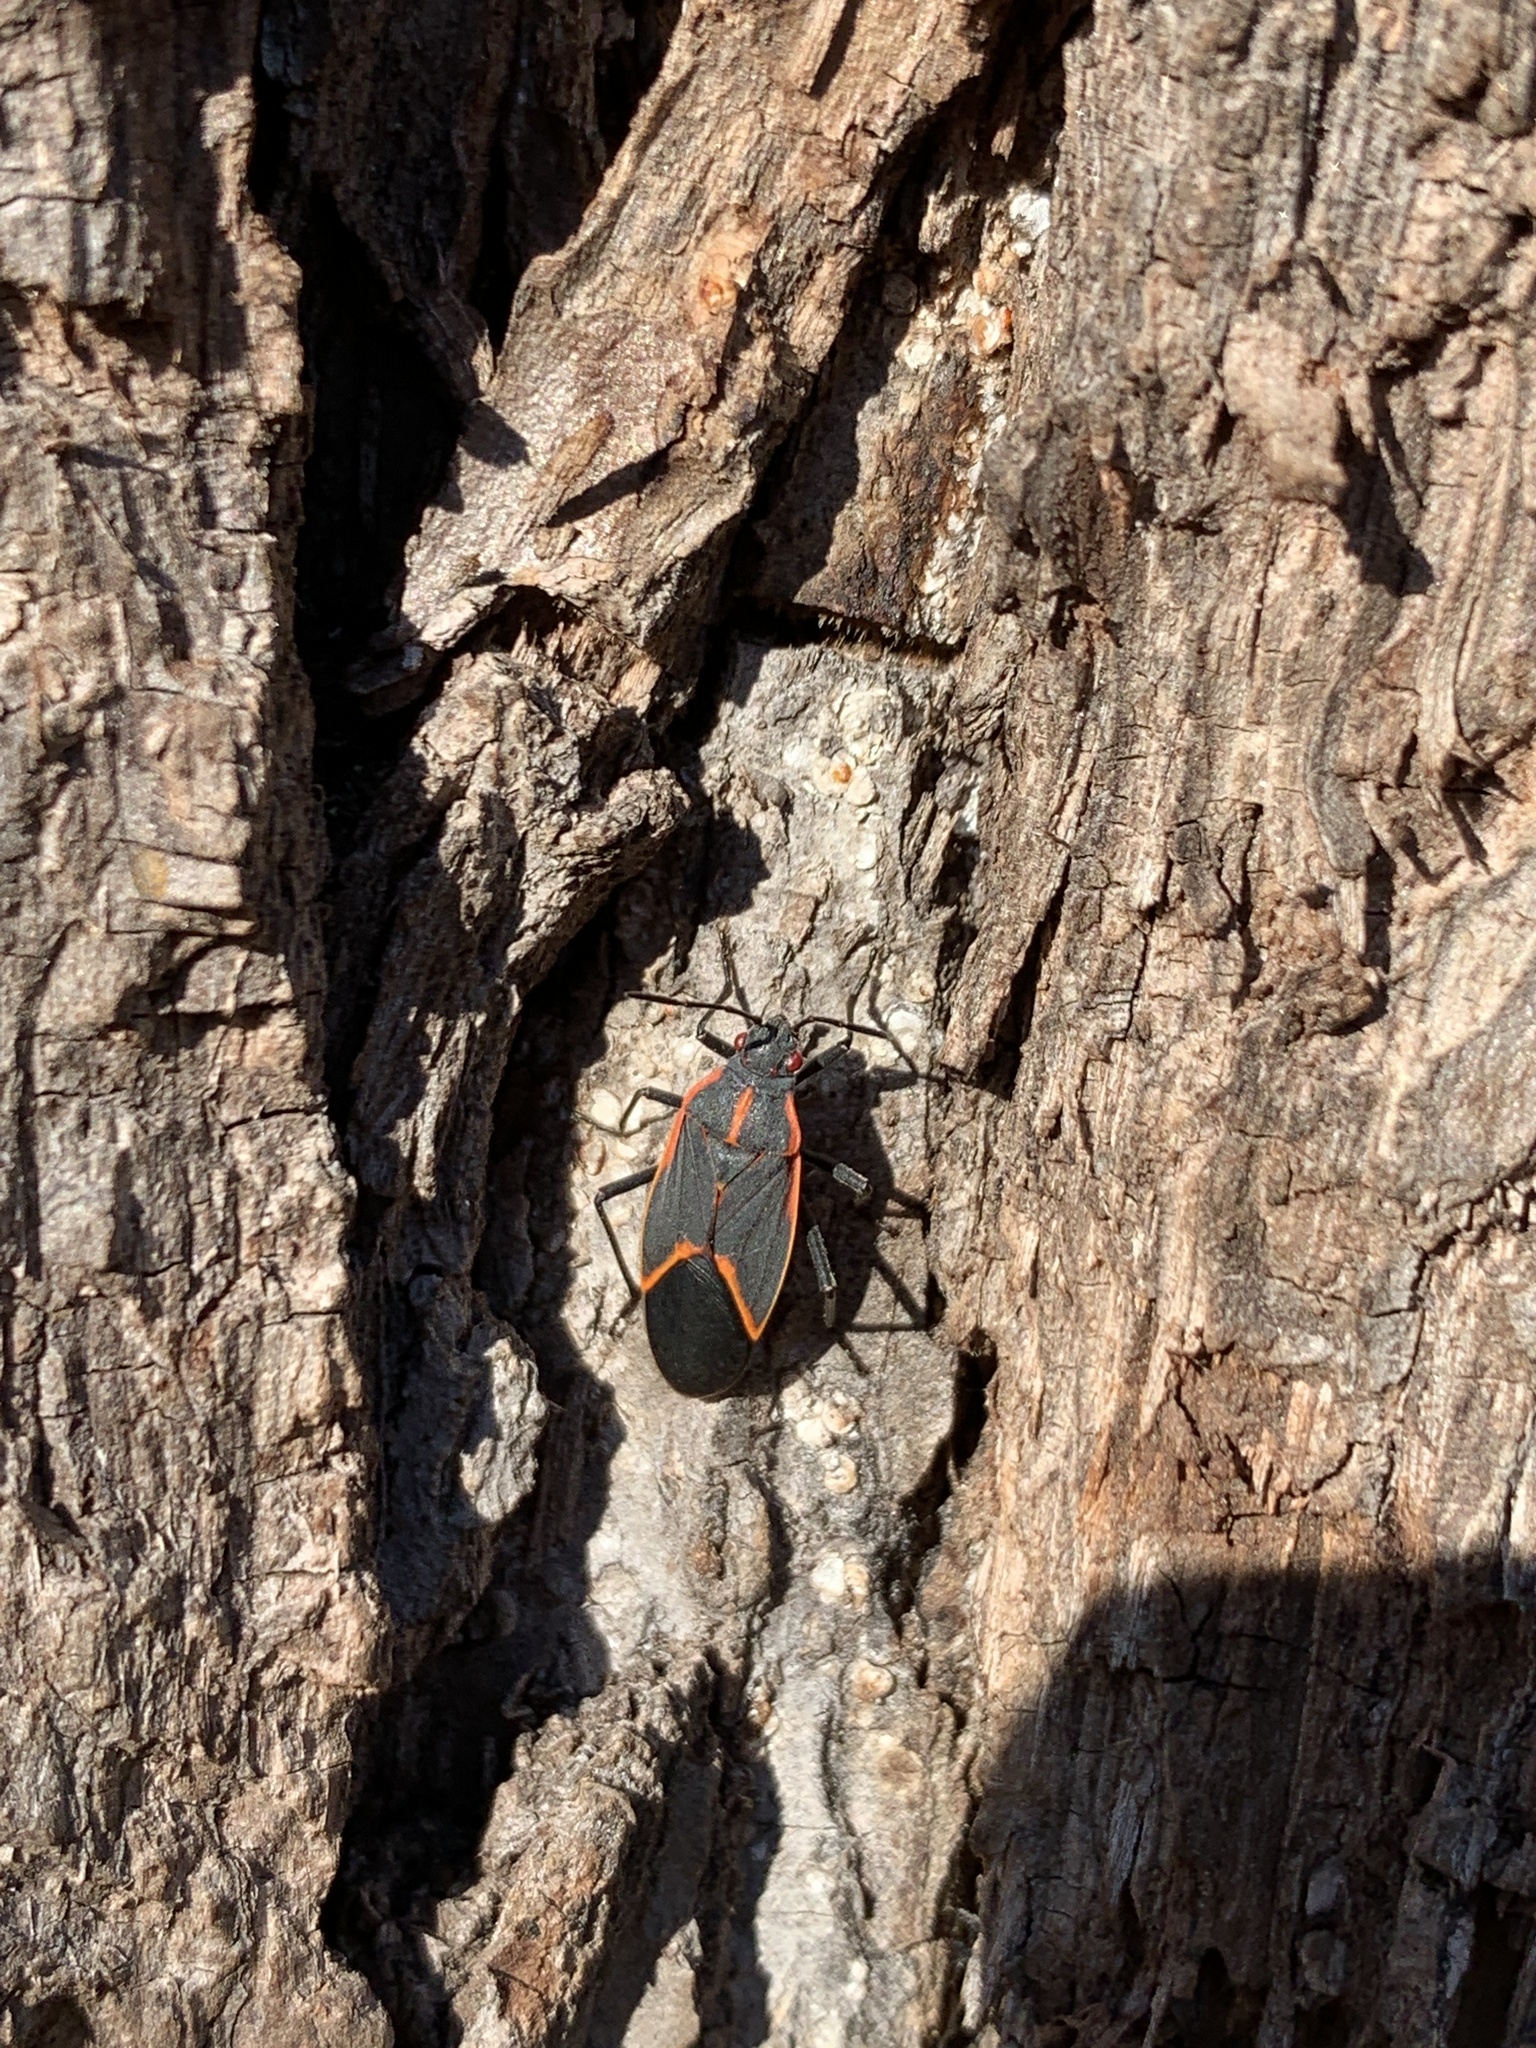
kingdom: Animalia
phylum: Arthropoda
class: Insecta
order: Hemiptera
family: Rhopalidae
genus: Boisea
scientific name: Boisea trivittata
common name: Boxelder bug
